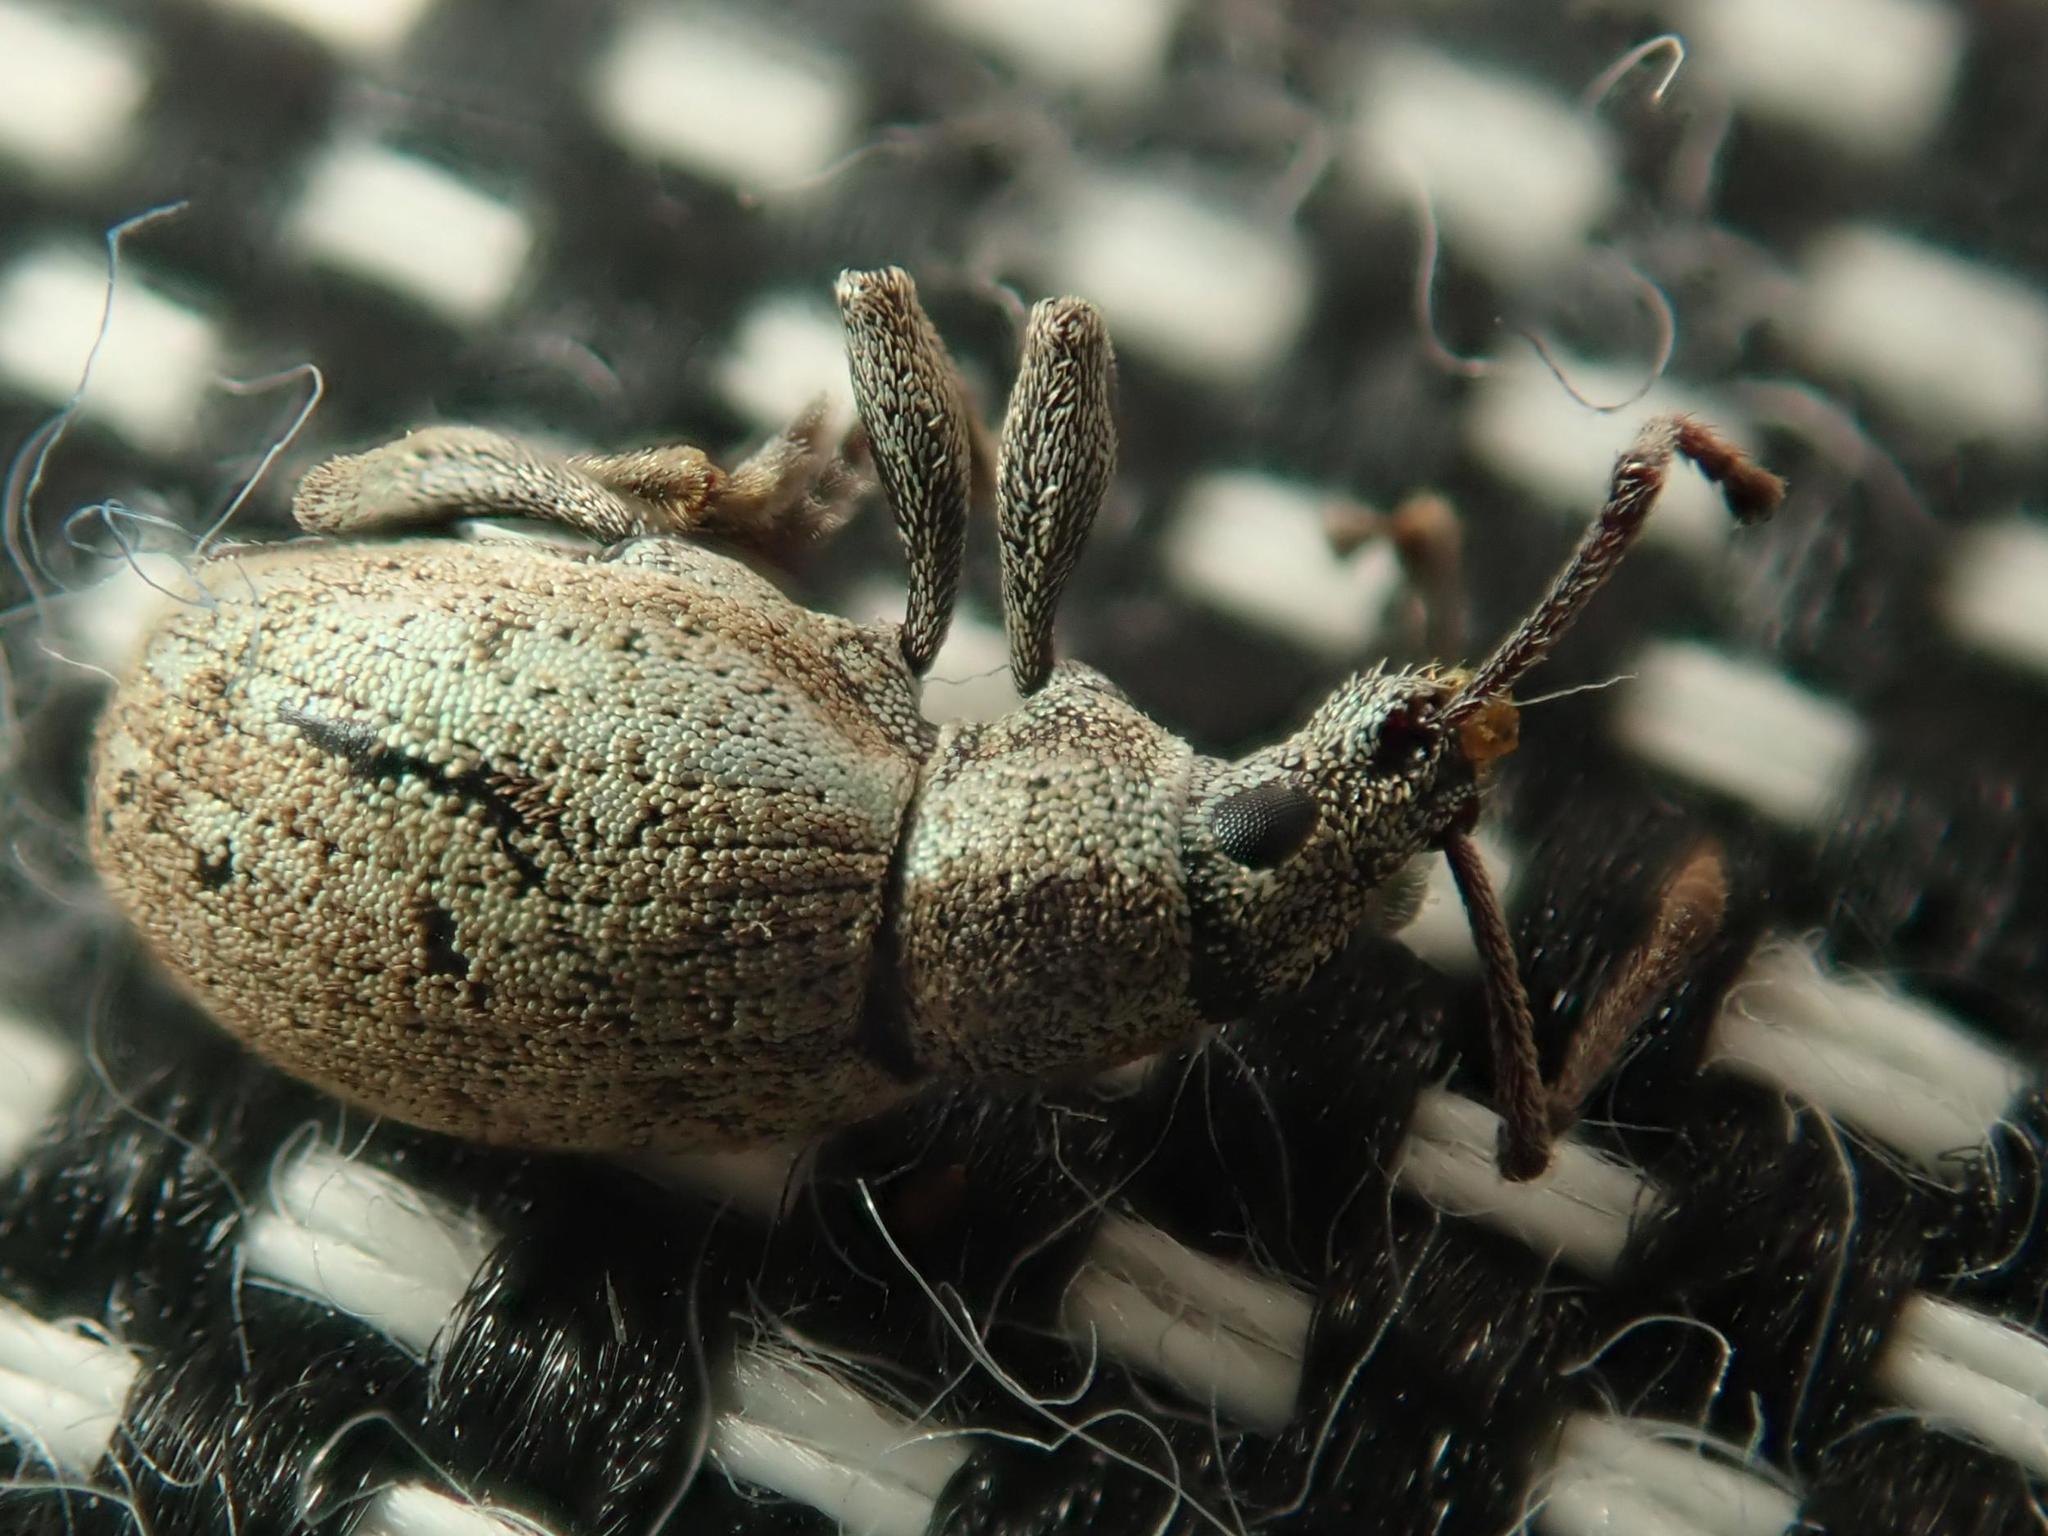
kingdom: Animalia
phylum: Arthropoda
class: Insecta
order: Coleoptera
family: Curculionidae
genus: Peritelus
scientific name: Peritelus sphaeroides
